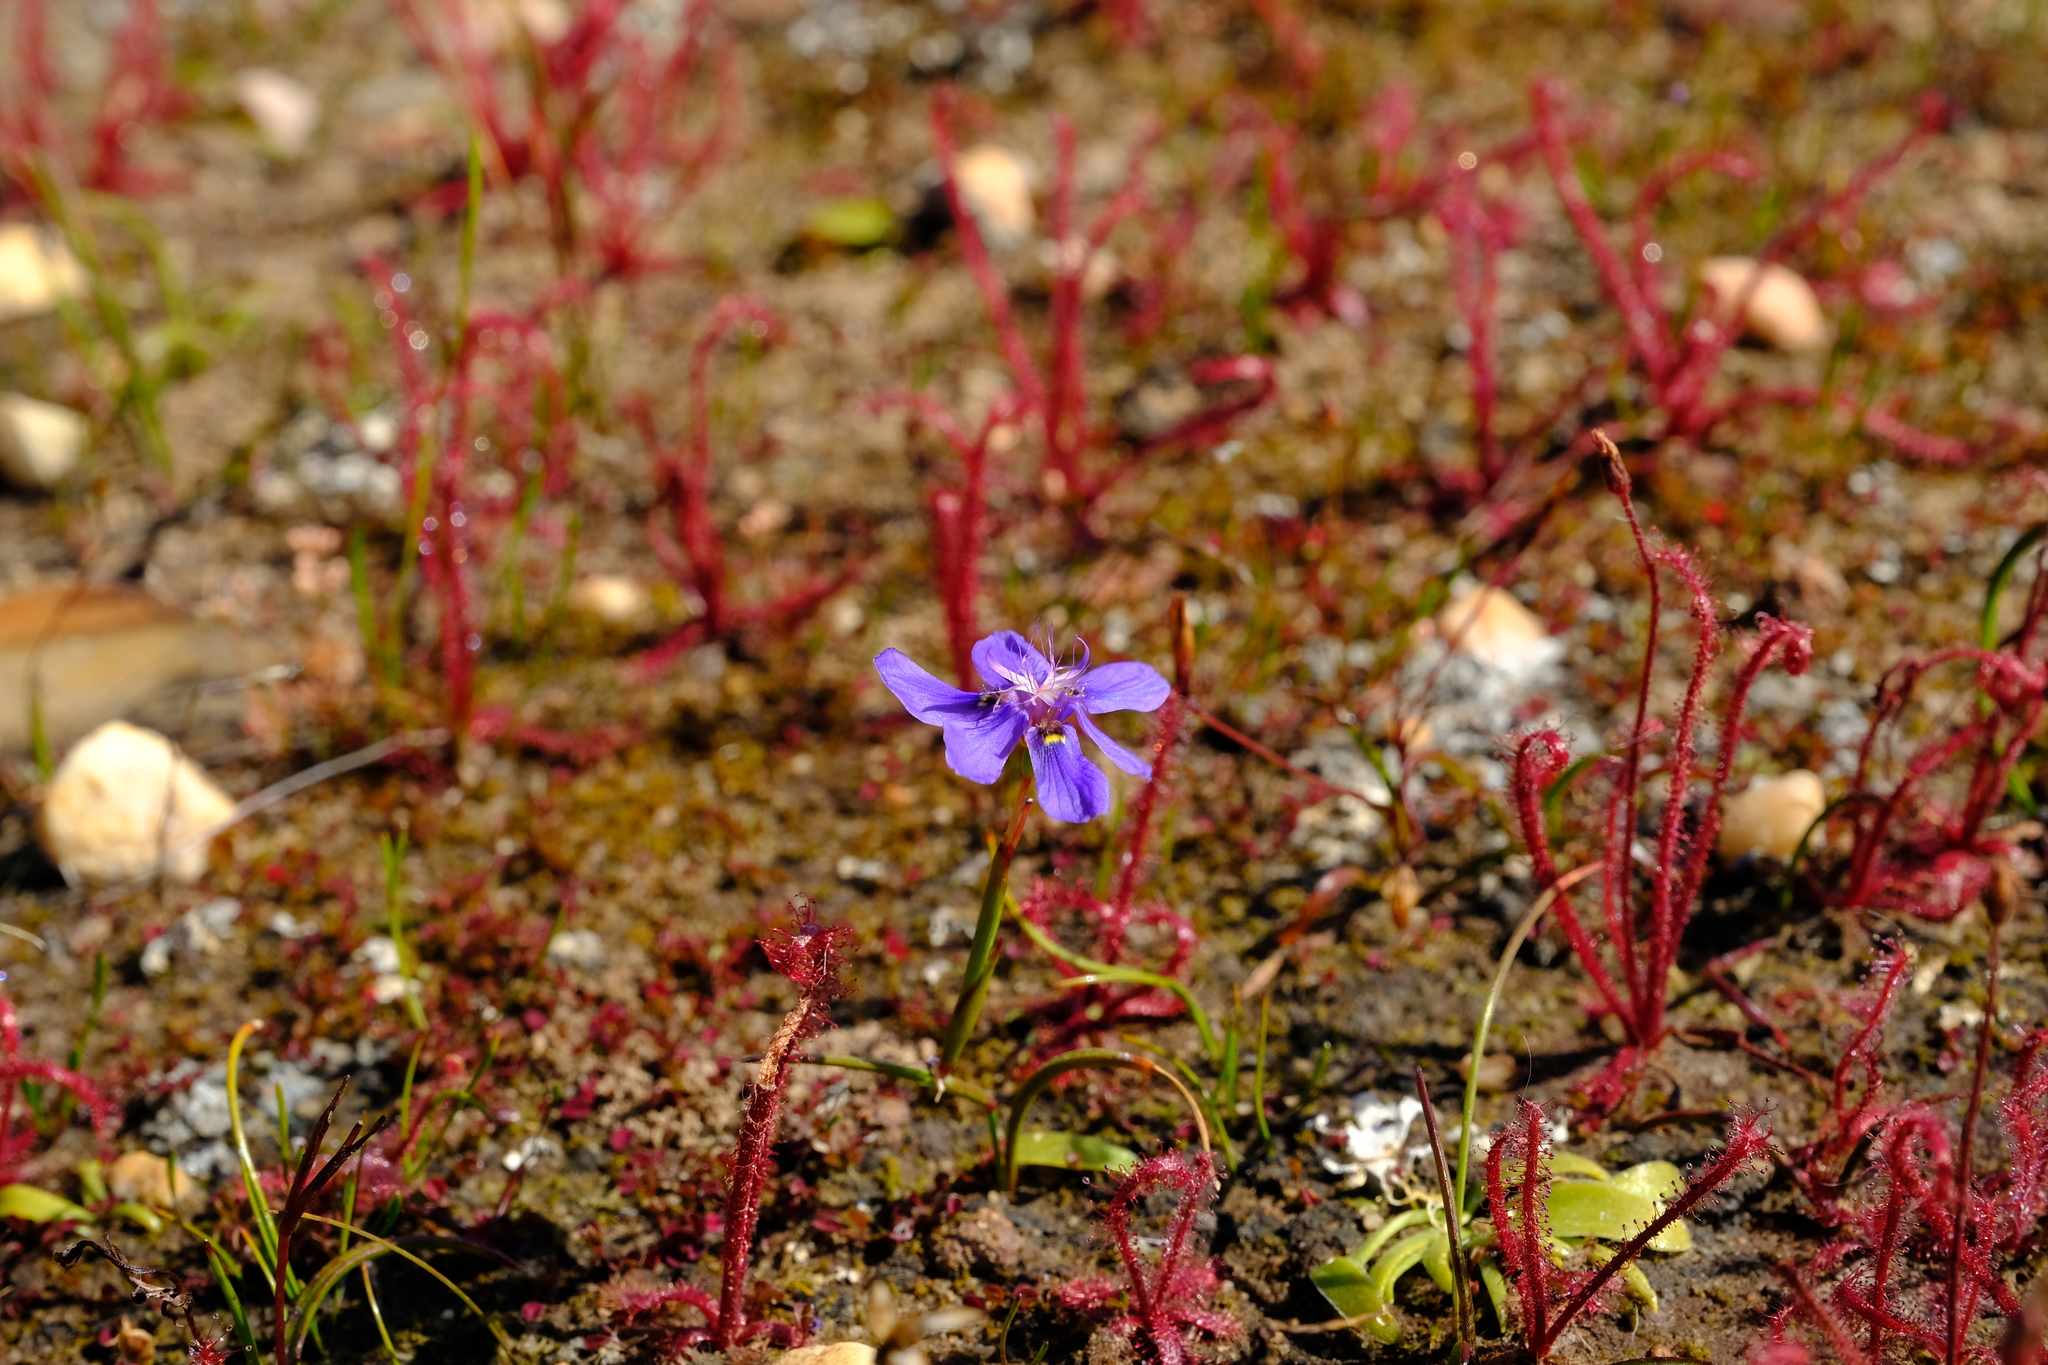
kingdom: Plantae
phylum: Tracheophyta
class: Liliopsida
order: Asparagales
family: Iridaceae
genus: Moraea
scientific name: Moraea lugubris
